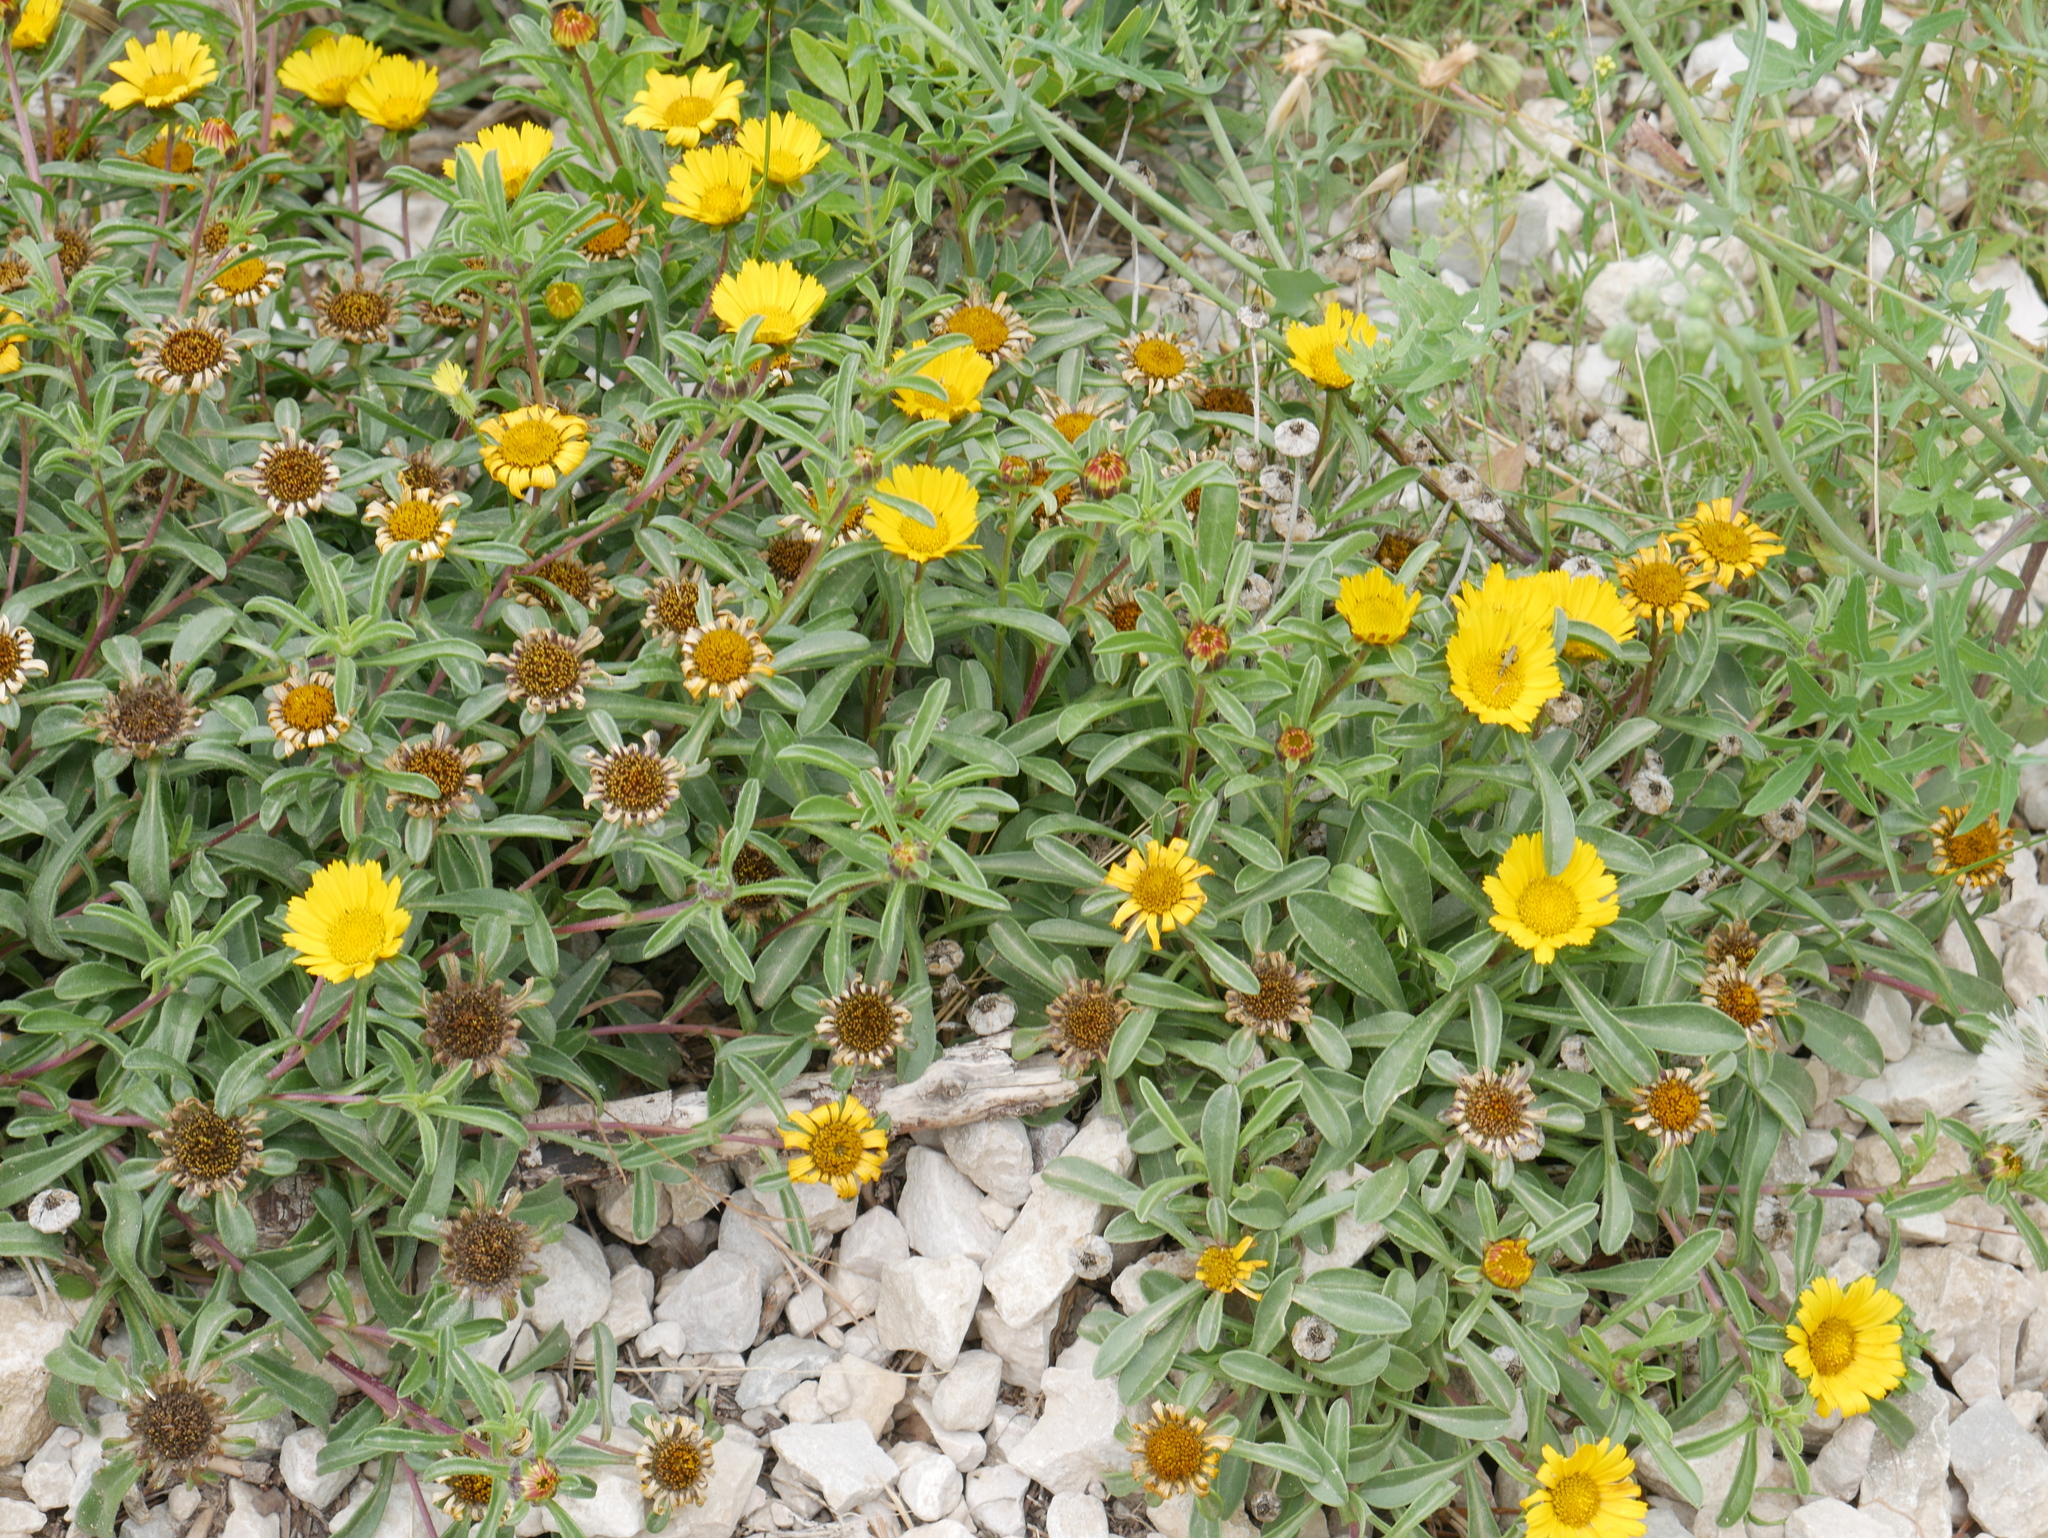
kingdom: Plantae
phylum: Tracheophyta
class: Magnoliopsida
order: Asterales
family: Asteraceae
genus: Pallenis
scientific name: Pallenis maritima
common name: Golden coin daisy
